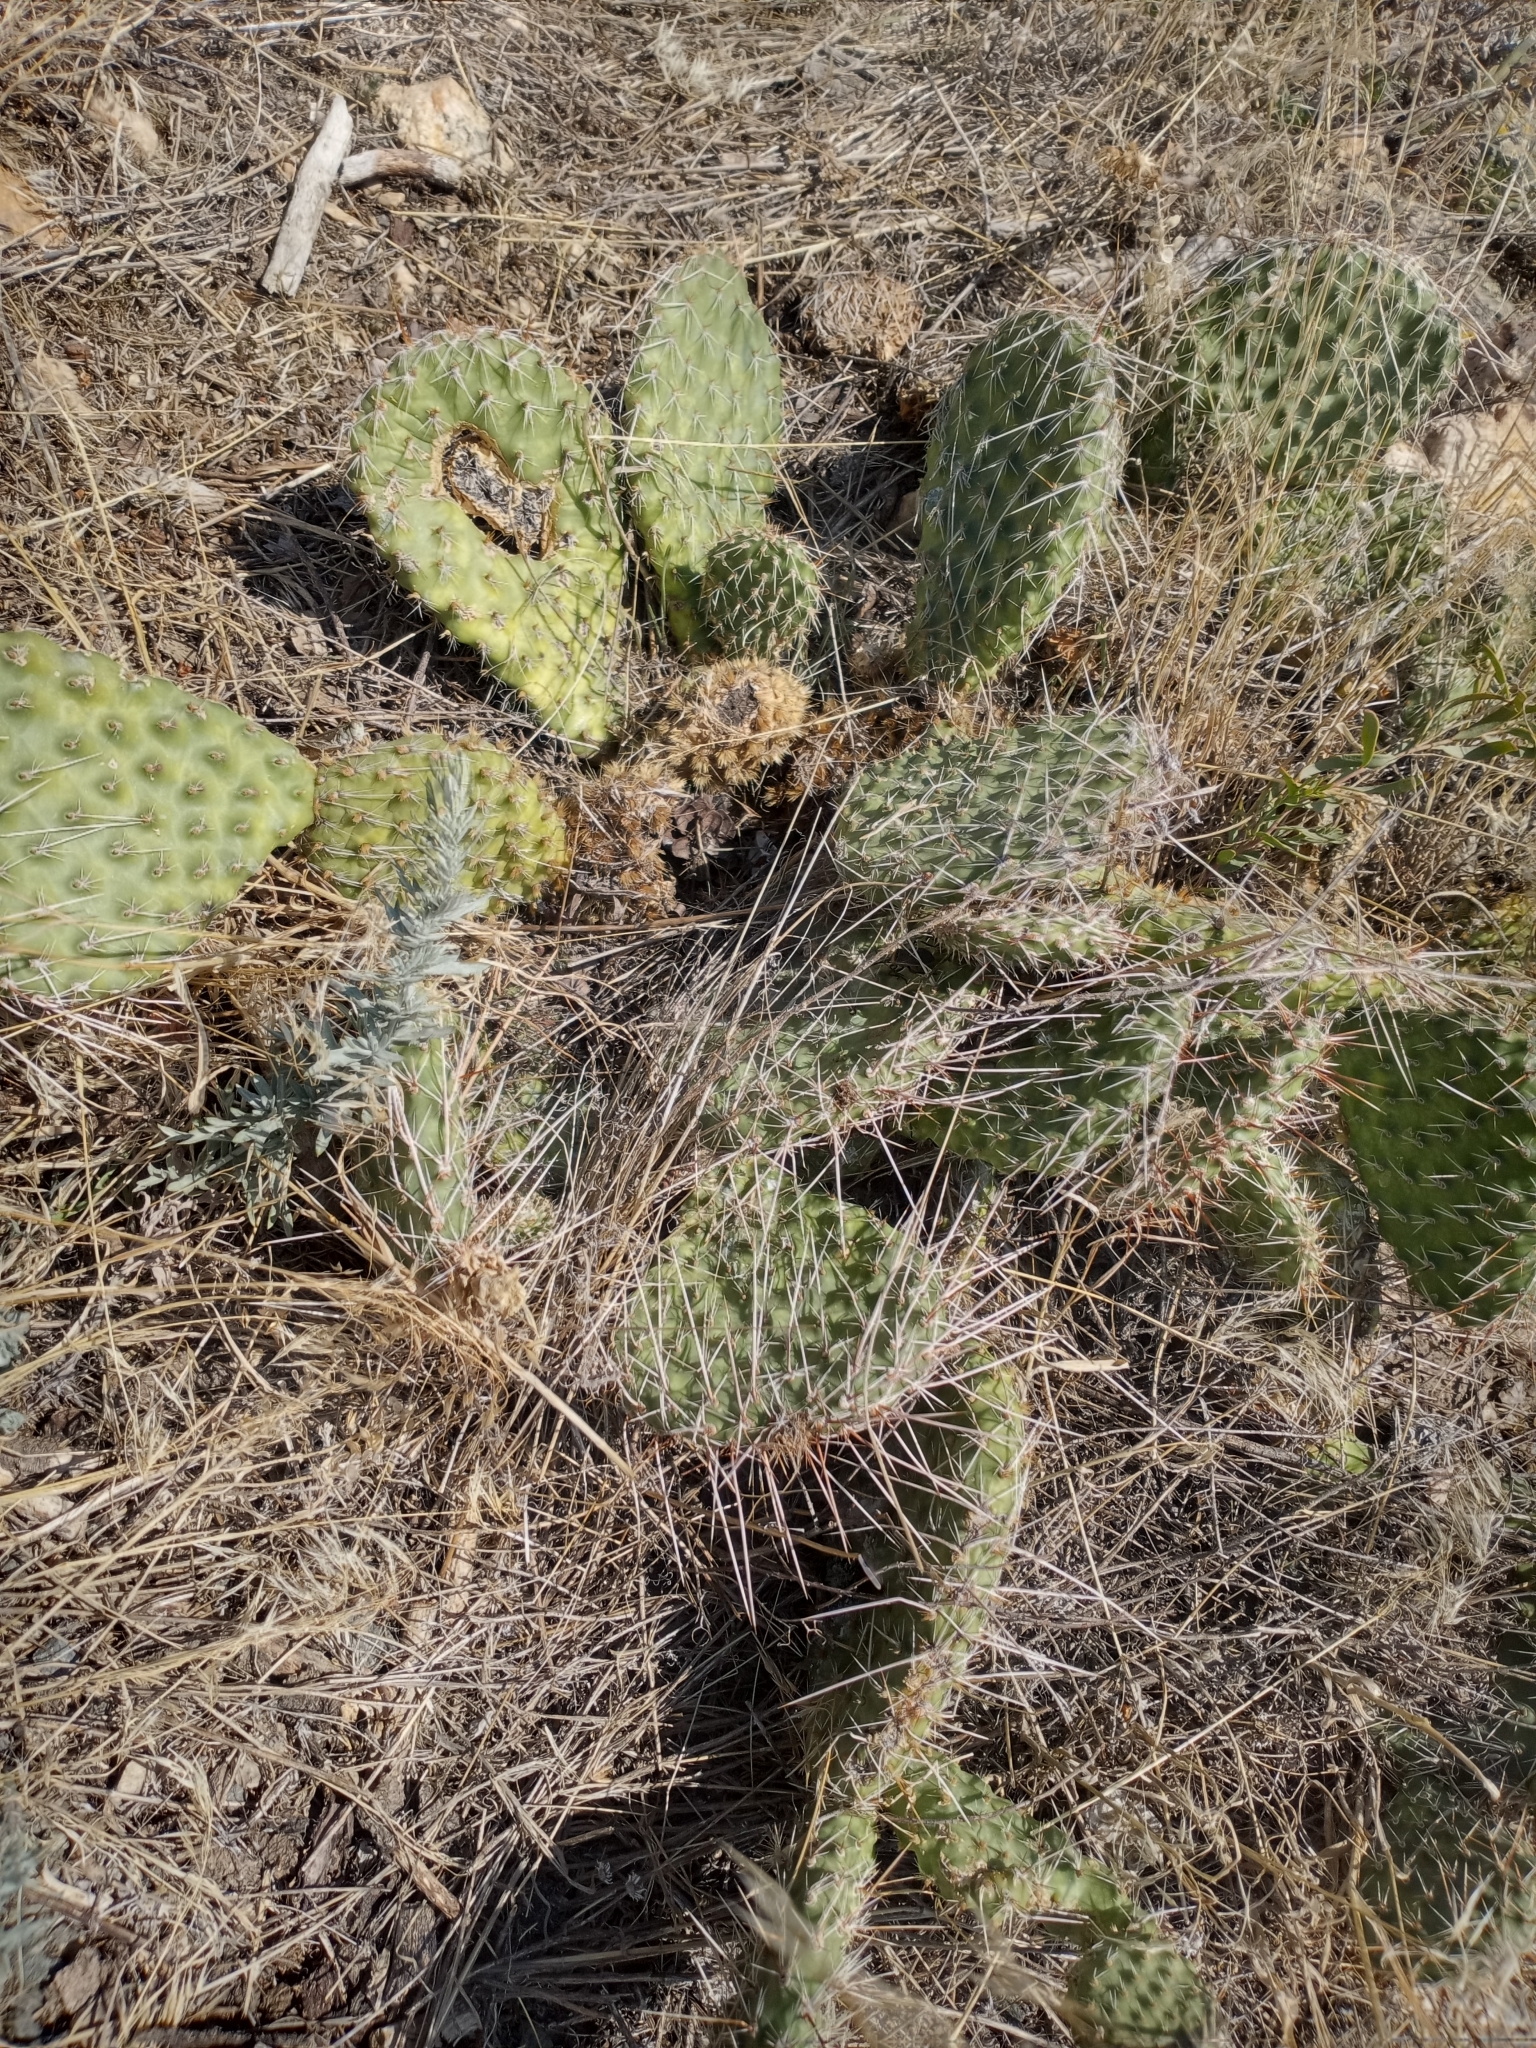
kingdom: Plantae
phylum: Tracheophyta
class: Magnoliopsida
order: Caryophyllales
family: Cactaceae
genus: Opuntia
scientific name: Opuntia polyacantha
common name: Plains prickly-pear
